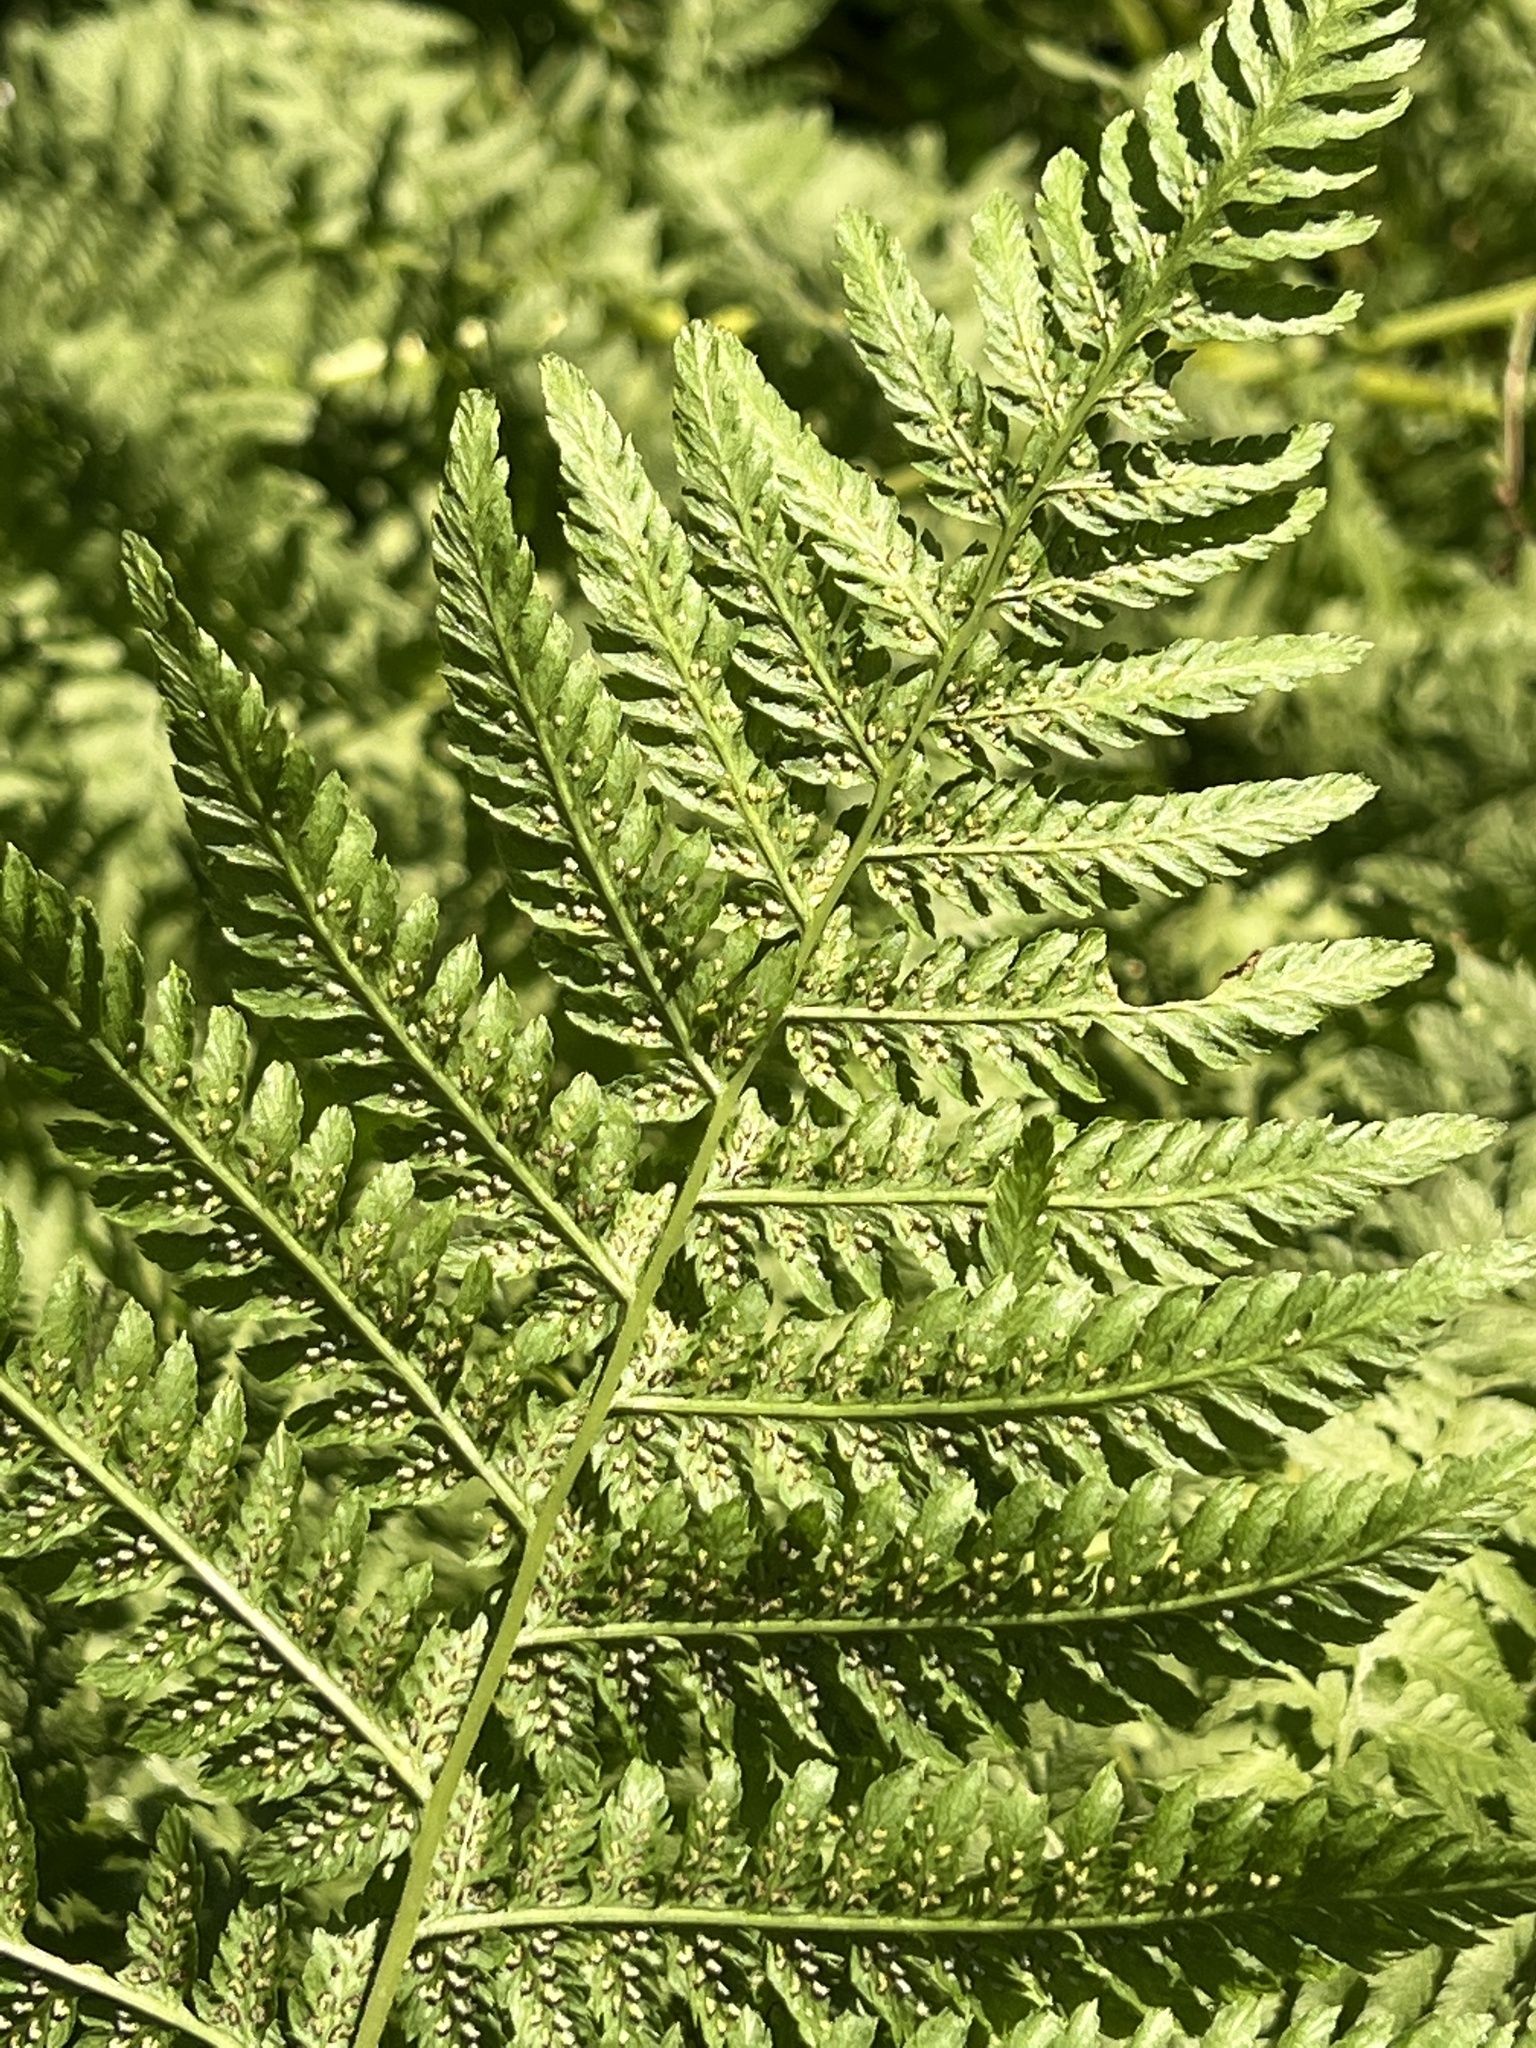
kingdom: Plantae
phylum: Tracheophyta
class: Polypodiopsida
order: Polypodiales
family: Athyriaceae
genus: Athyrium
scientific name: Athyrium cyclosorum
